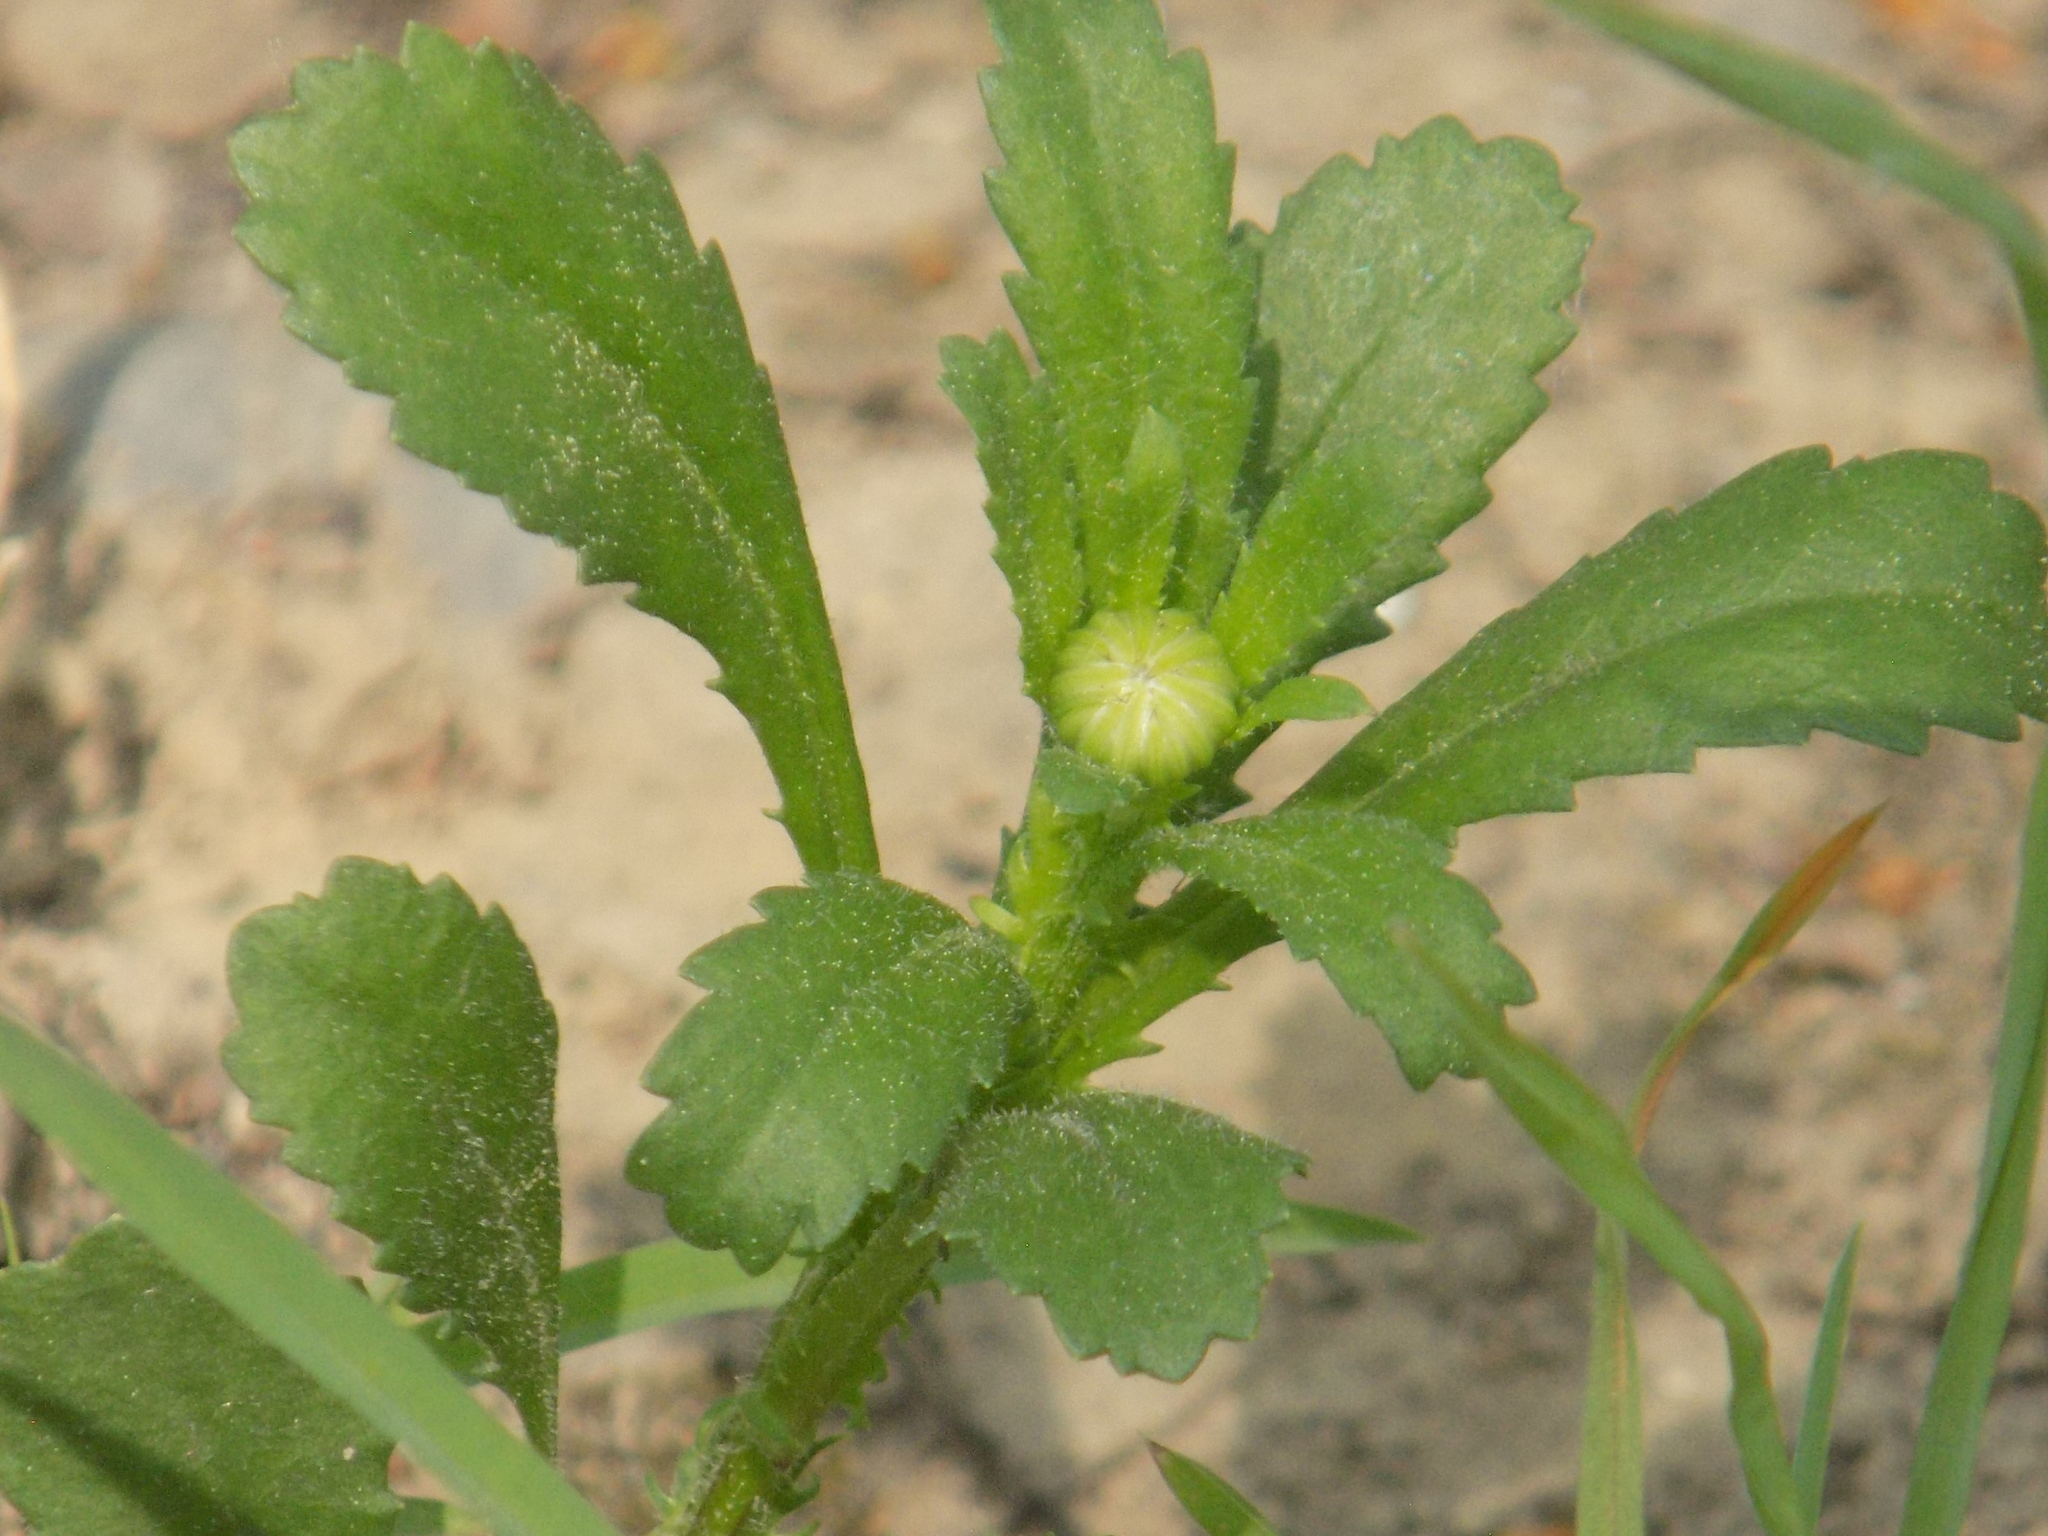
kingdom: Plantae
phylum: Tracheophyta
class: Magnoliopsida
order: Asterales
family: Asteraceae
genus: Leucanthemum
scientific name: Leucanthemum vulgare
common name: Oxeye daisy
